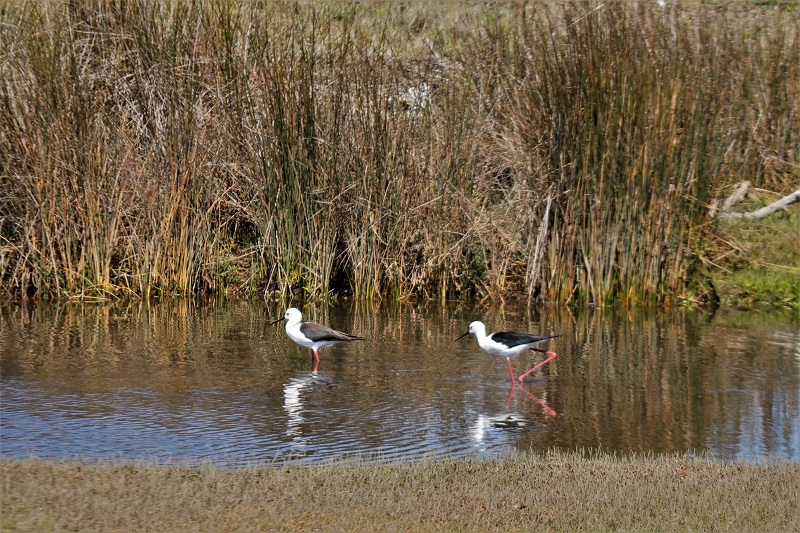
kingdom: Animalia
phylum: Chordata
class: Aves
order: Charadriiformes
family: Recurvirostridae
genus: Himantopus
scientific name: Himantopus himantopus
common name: Black-winged stilt
